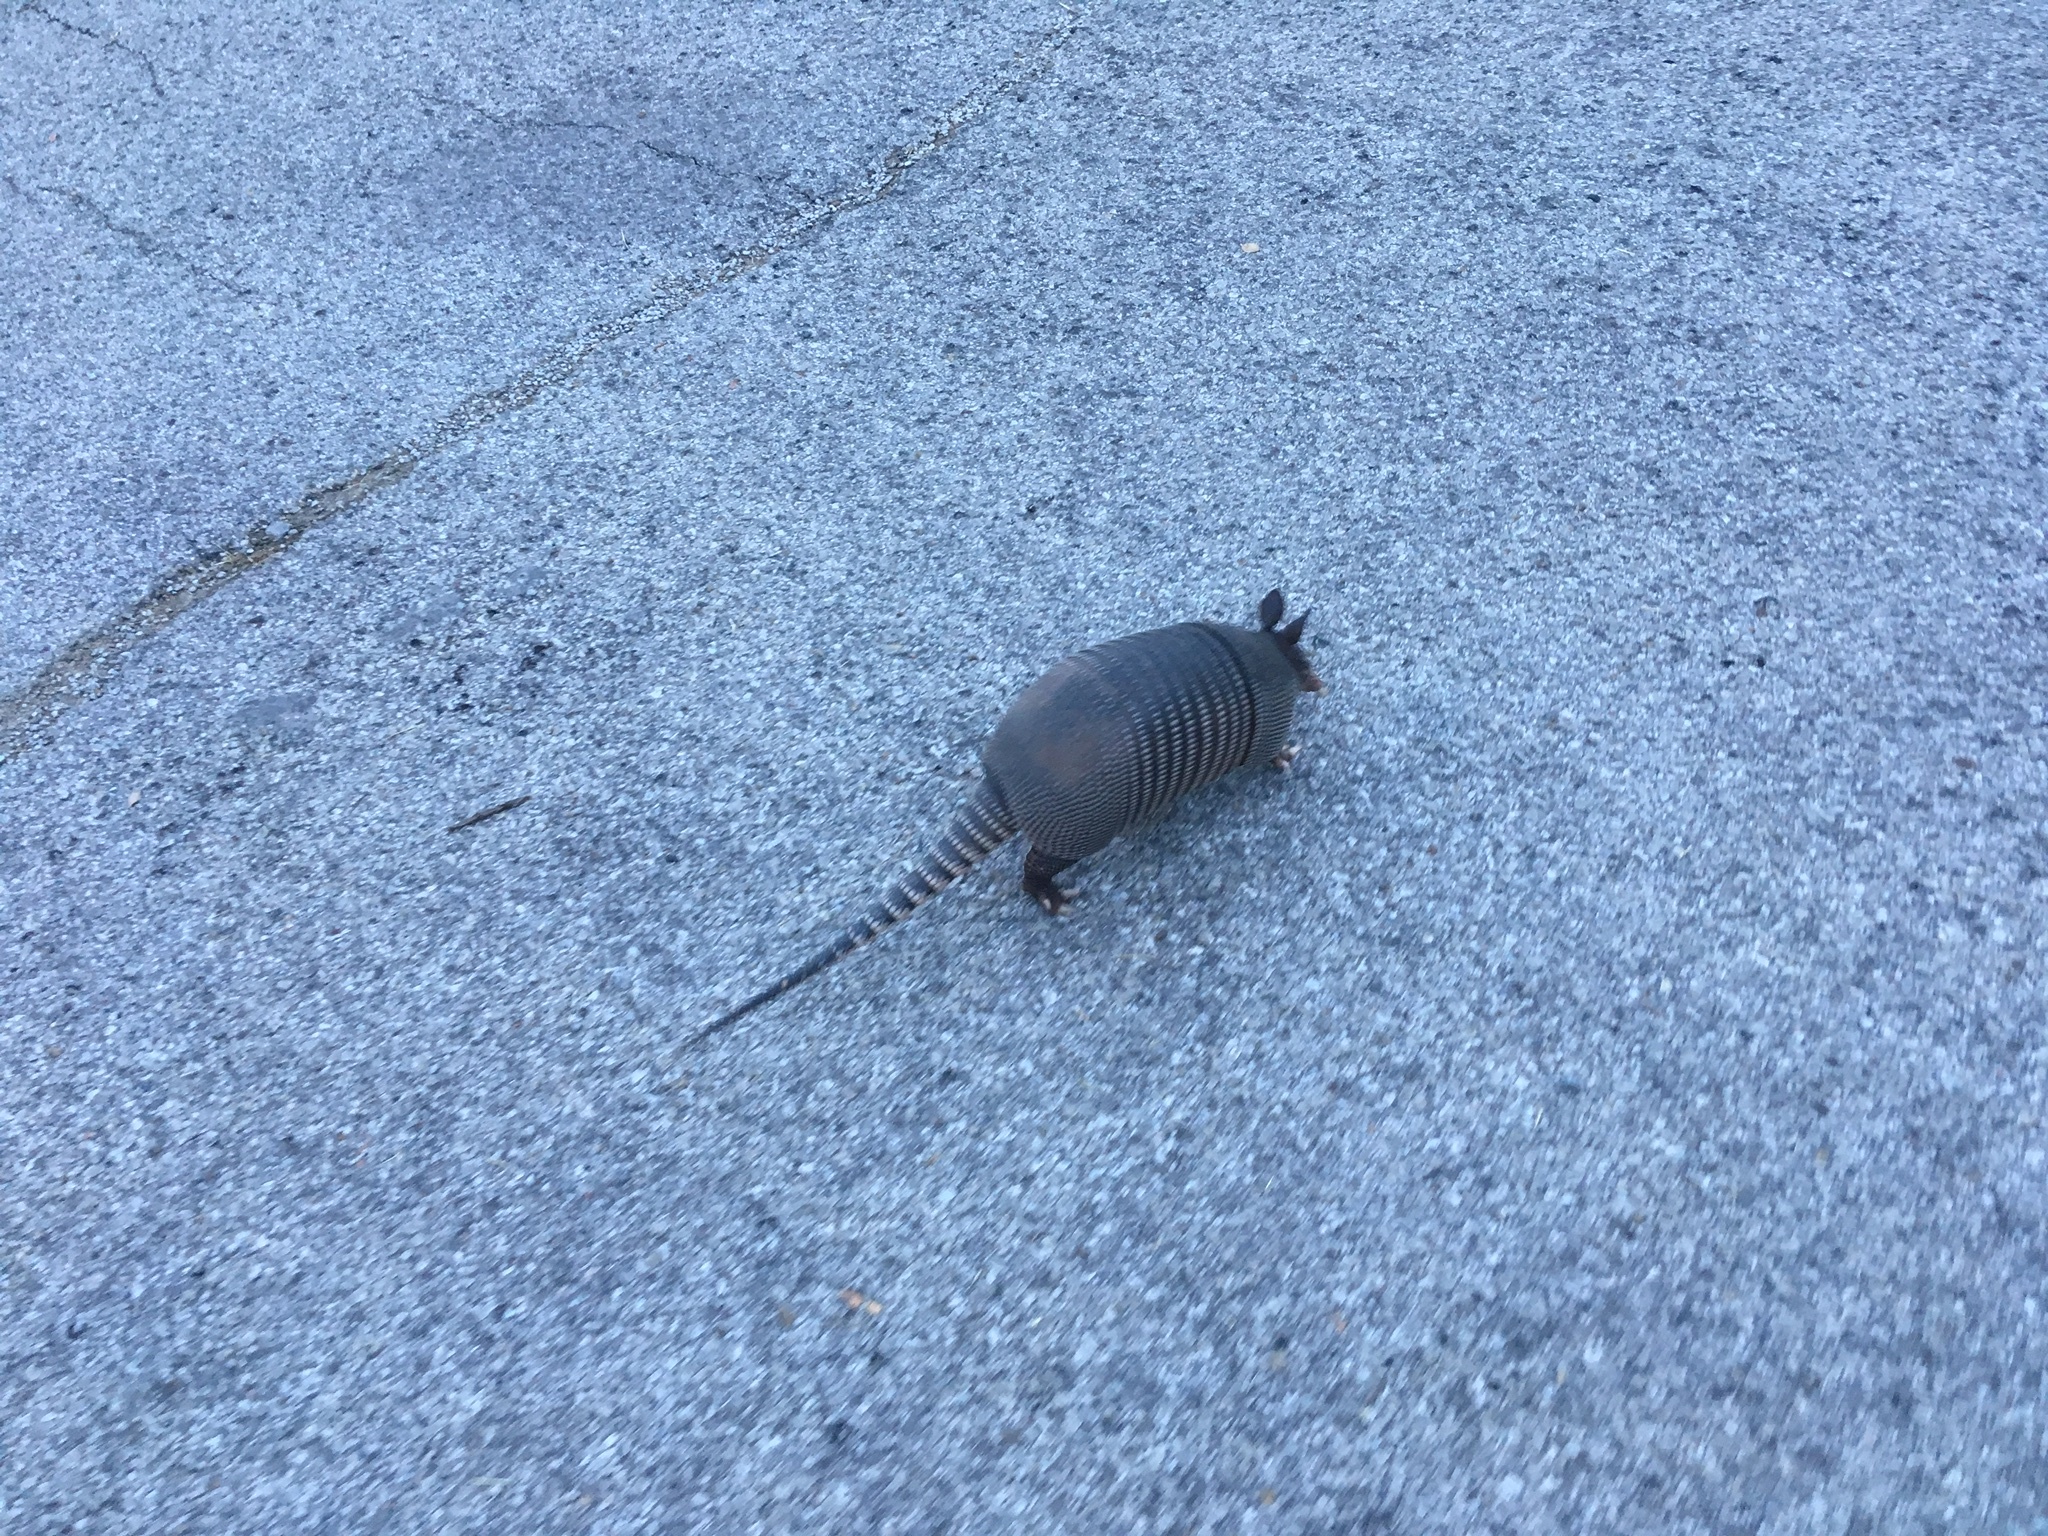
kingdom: Animalia
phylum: Chordata
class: Mammalia
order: Cingulata
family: Dasypodidae
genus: Dasypus
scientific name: Dasypus novemcinctus
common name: Nine-banded armadillo
